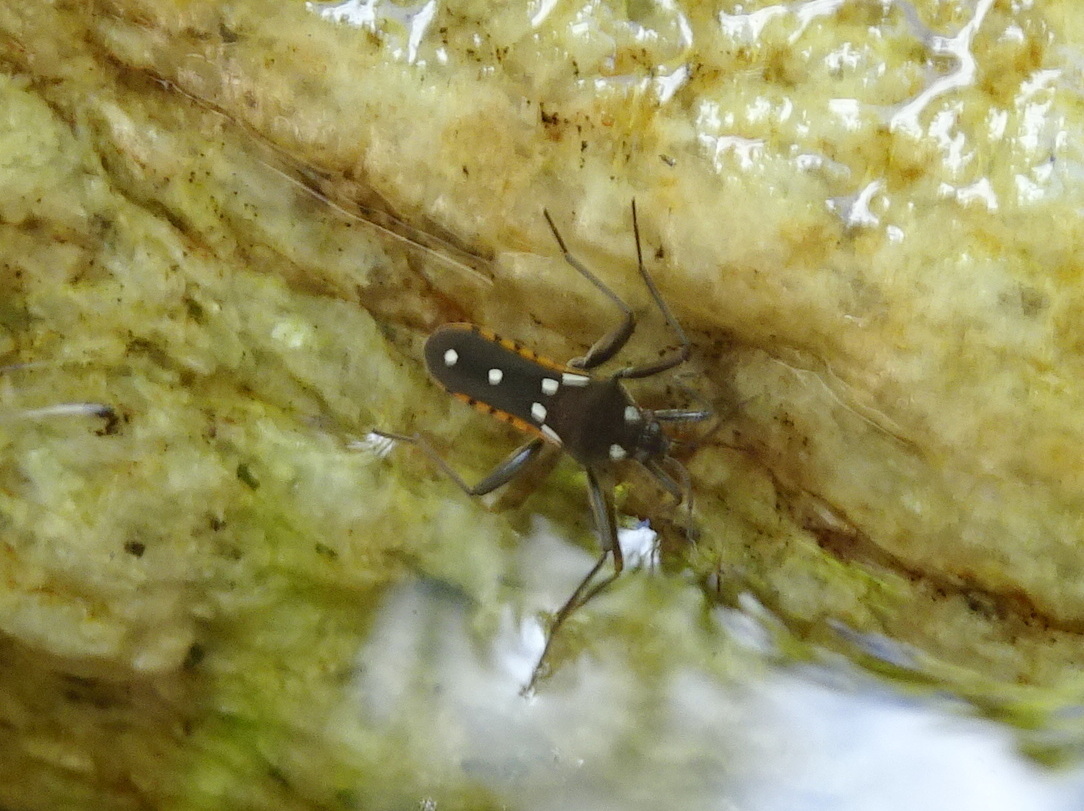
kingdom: Animalia
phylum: Arthropoda
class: Insecta
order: Hemiptera
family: Veliidae
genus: Plesiovelia
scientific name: Plesiovelia
